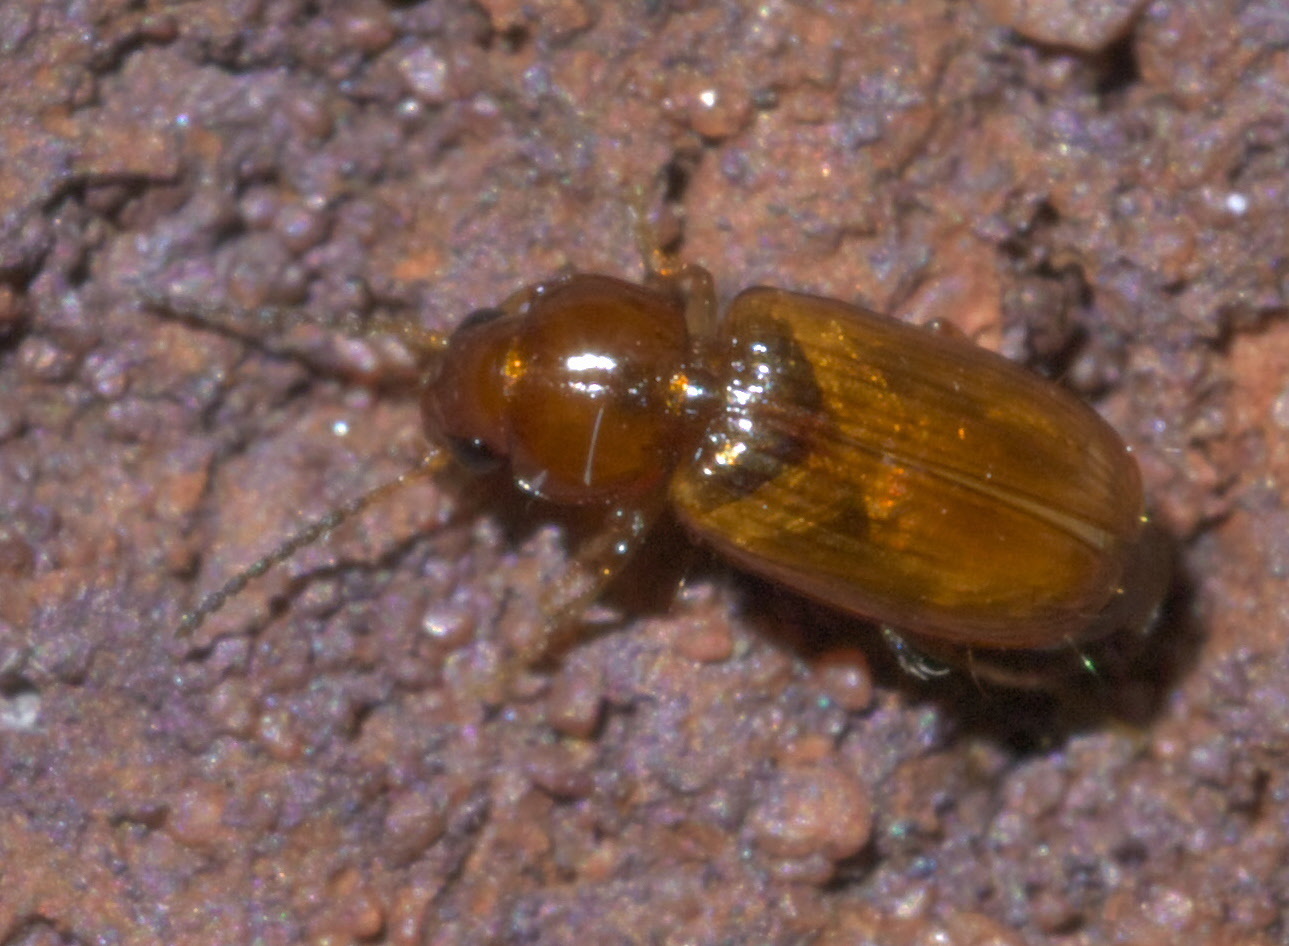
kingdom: Animalia
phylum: Arthropoda
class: Insecta
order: Coleoptera
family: Carabidae
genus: Acupalpus
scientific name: Acupalpus testaceus
